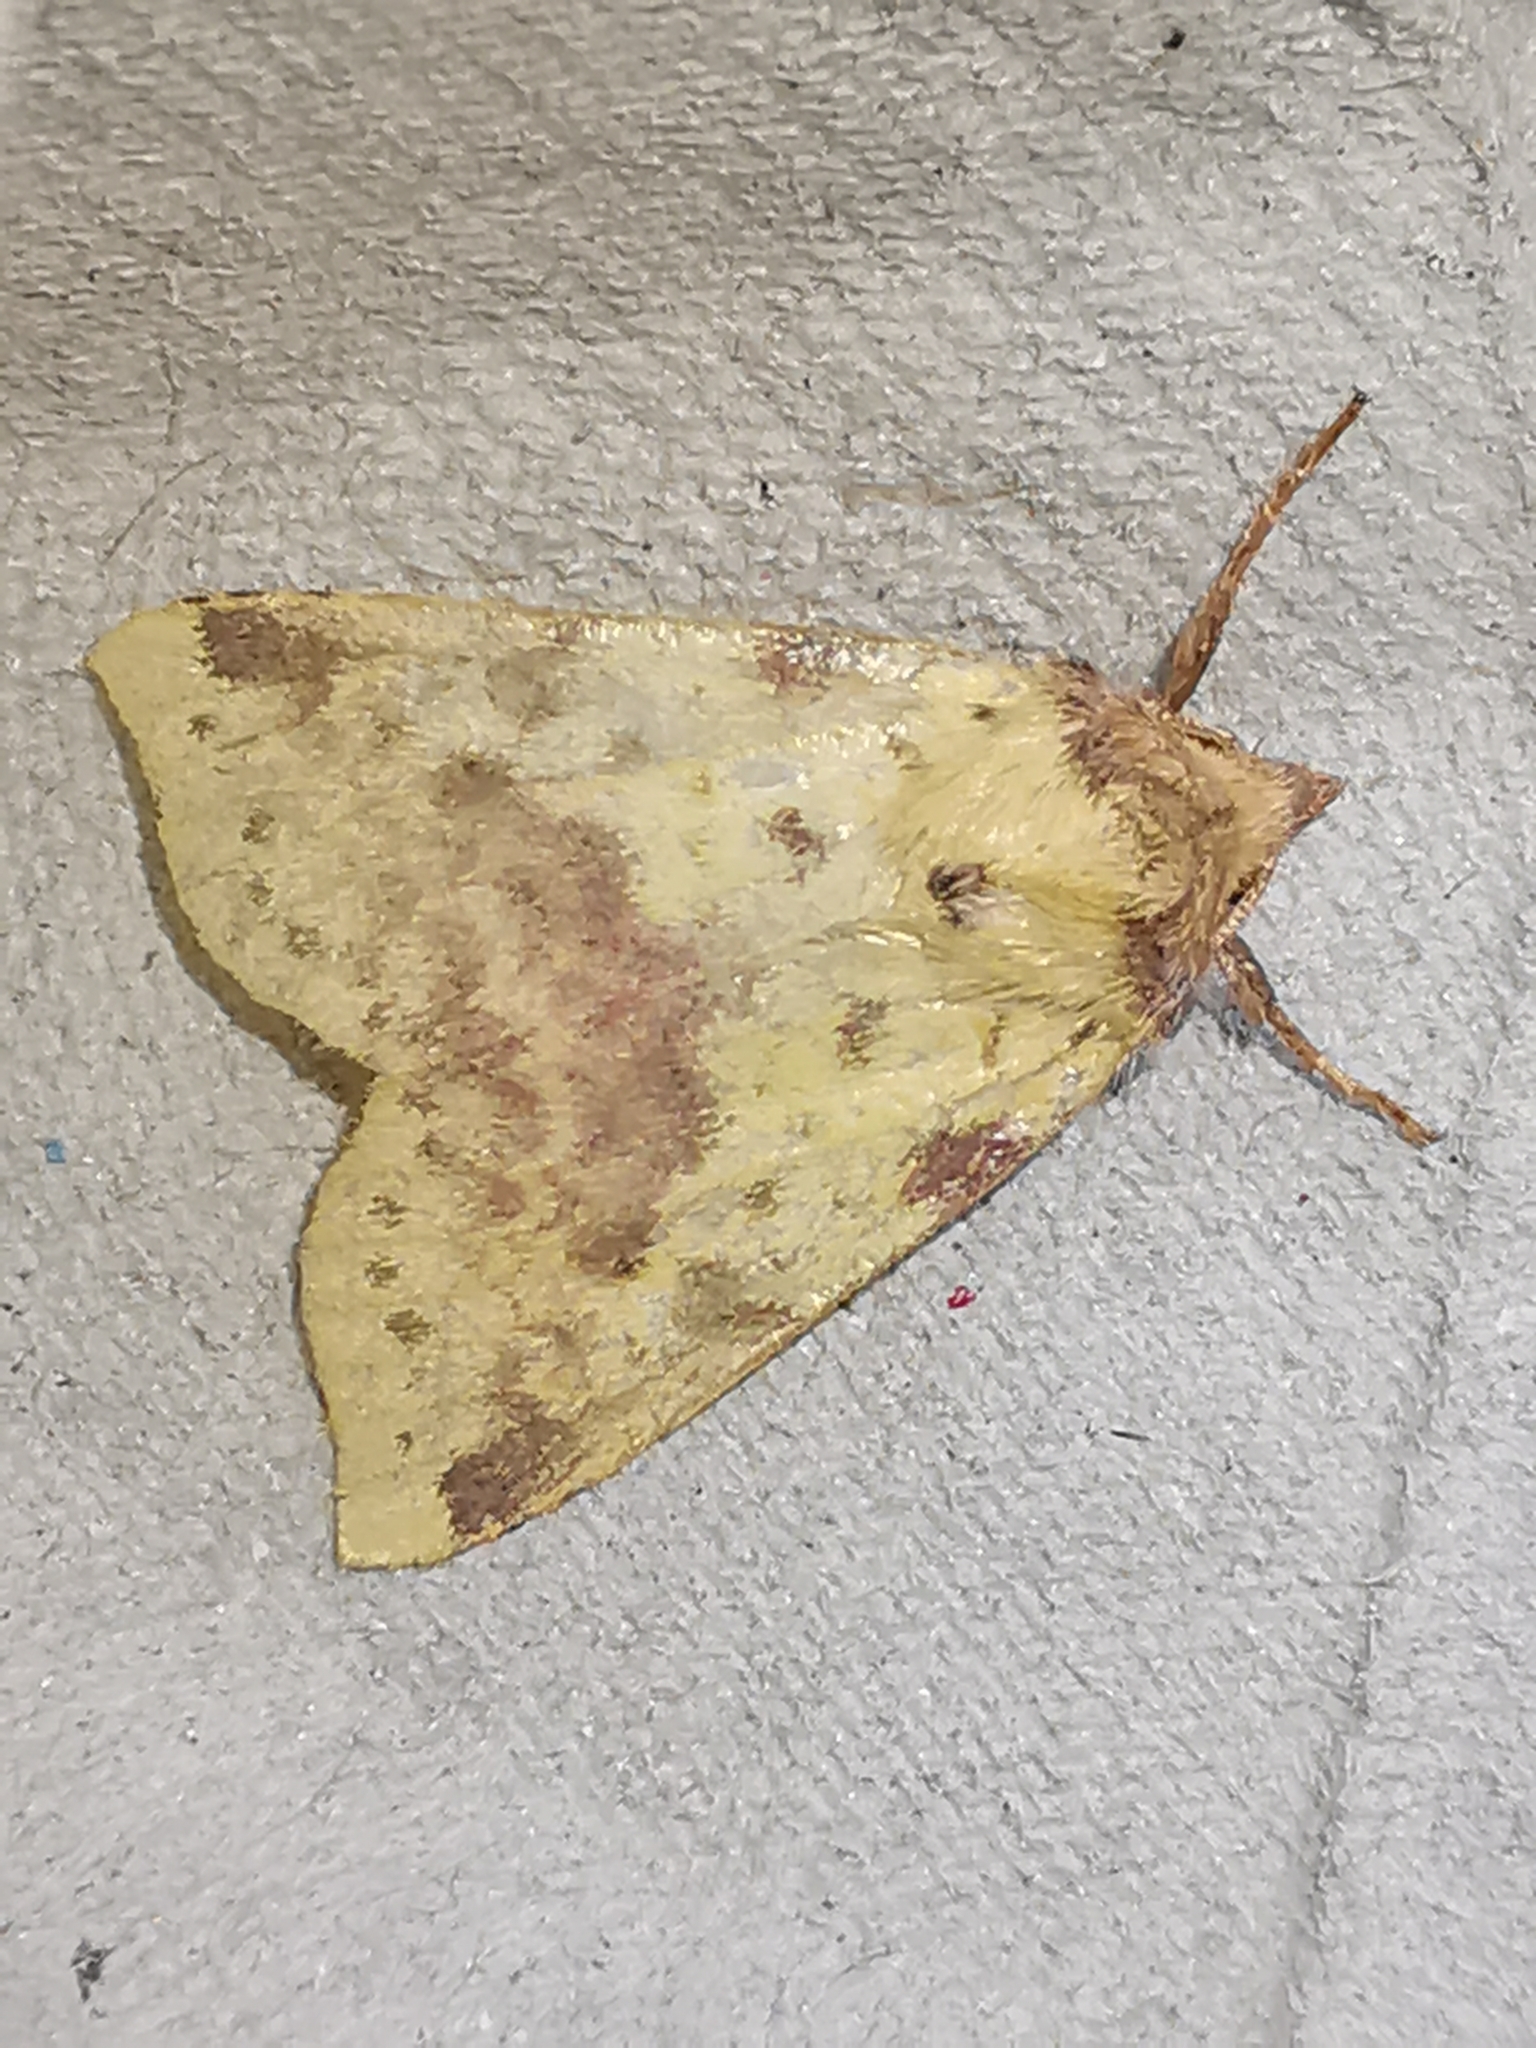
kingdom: Animalia
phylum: Arthropoda
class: Insecta
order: Lepidoptera
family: Noctuidae
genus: Xanthia
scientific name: Xanthia togata
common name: Pink-barred sallow
